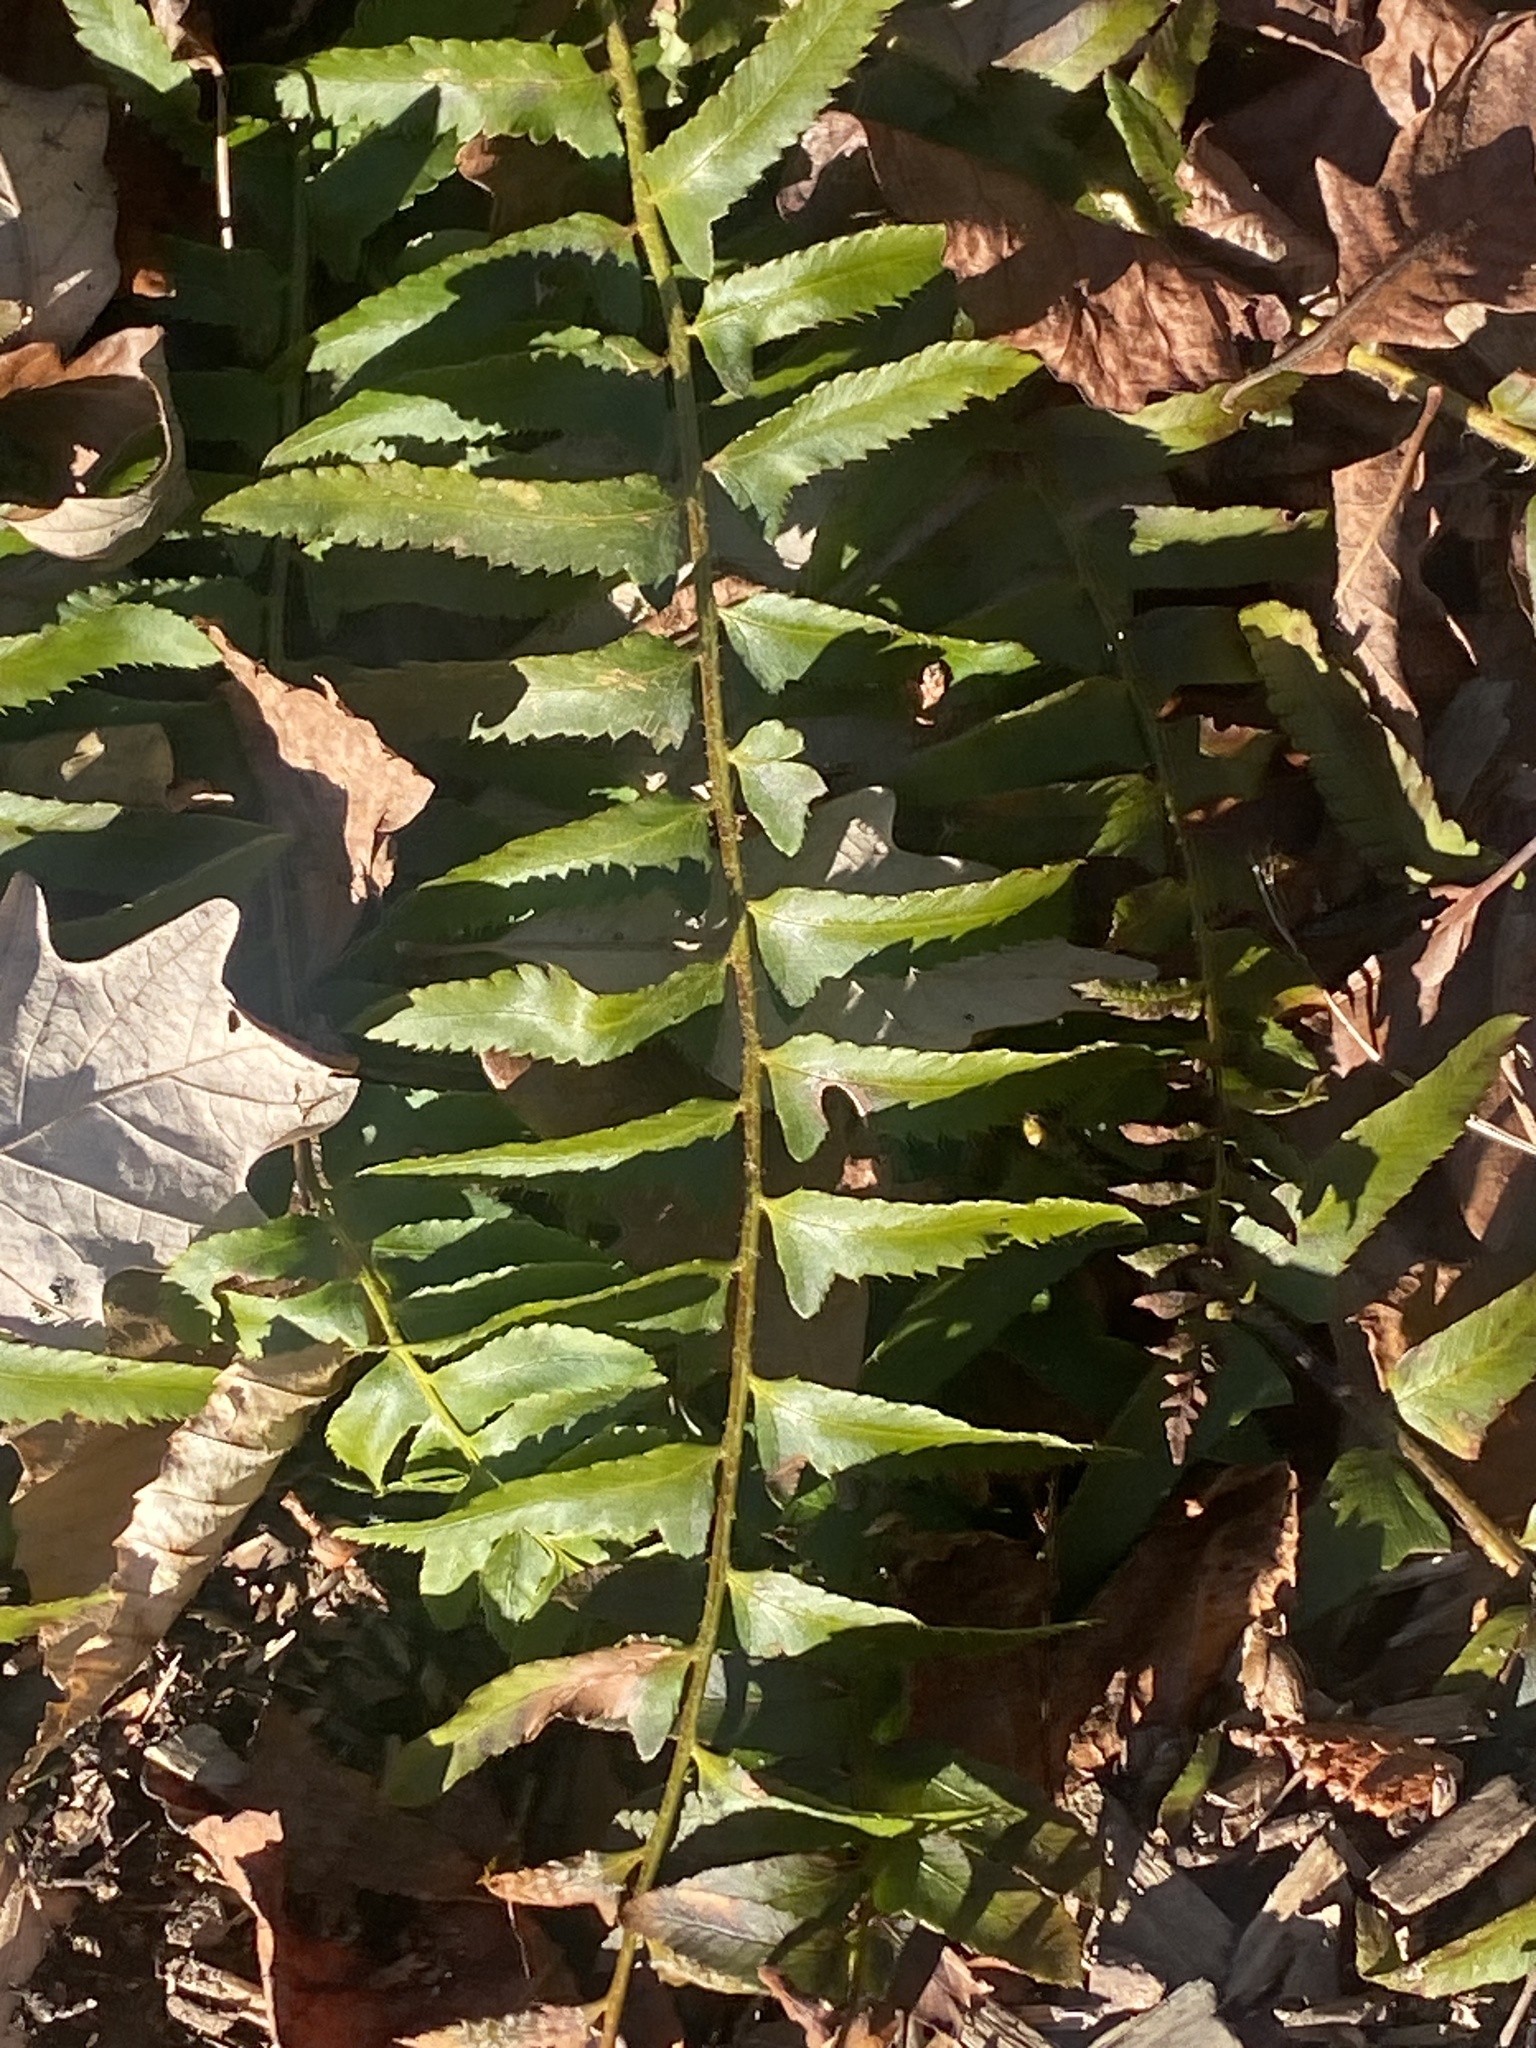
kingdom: Plantae
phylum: Tracheophyta
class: Polypodiopsida
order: Polypodiales
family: Dryopteridaceae
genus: Polystichum
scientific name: Polystichum acrostichoides
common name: Christmas fern
